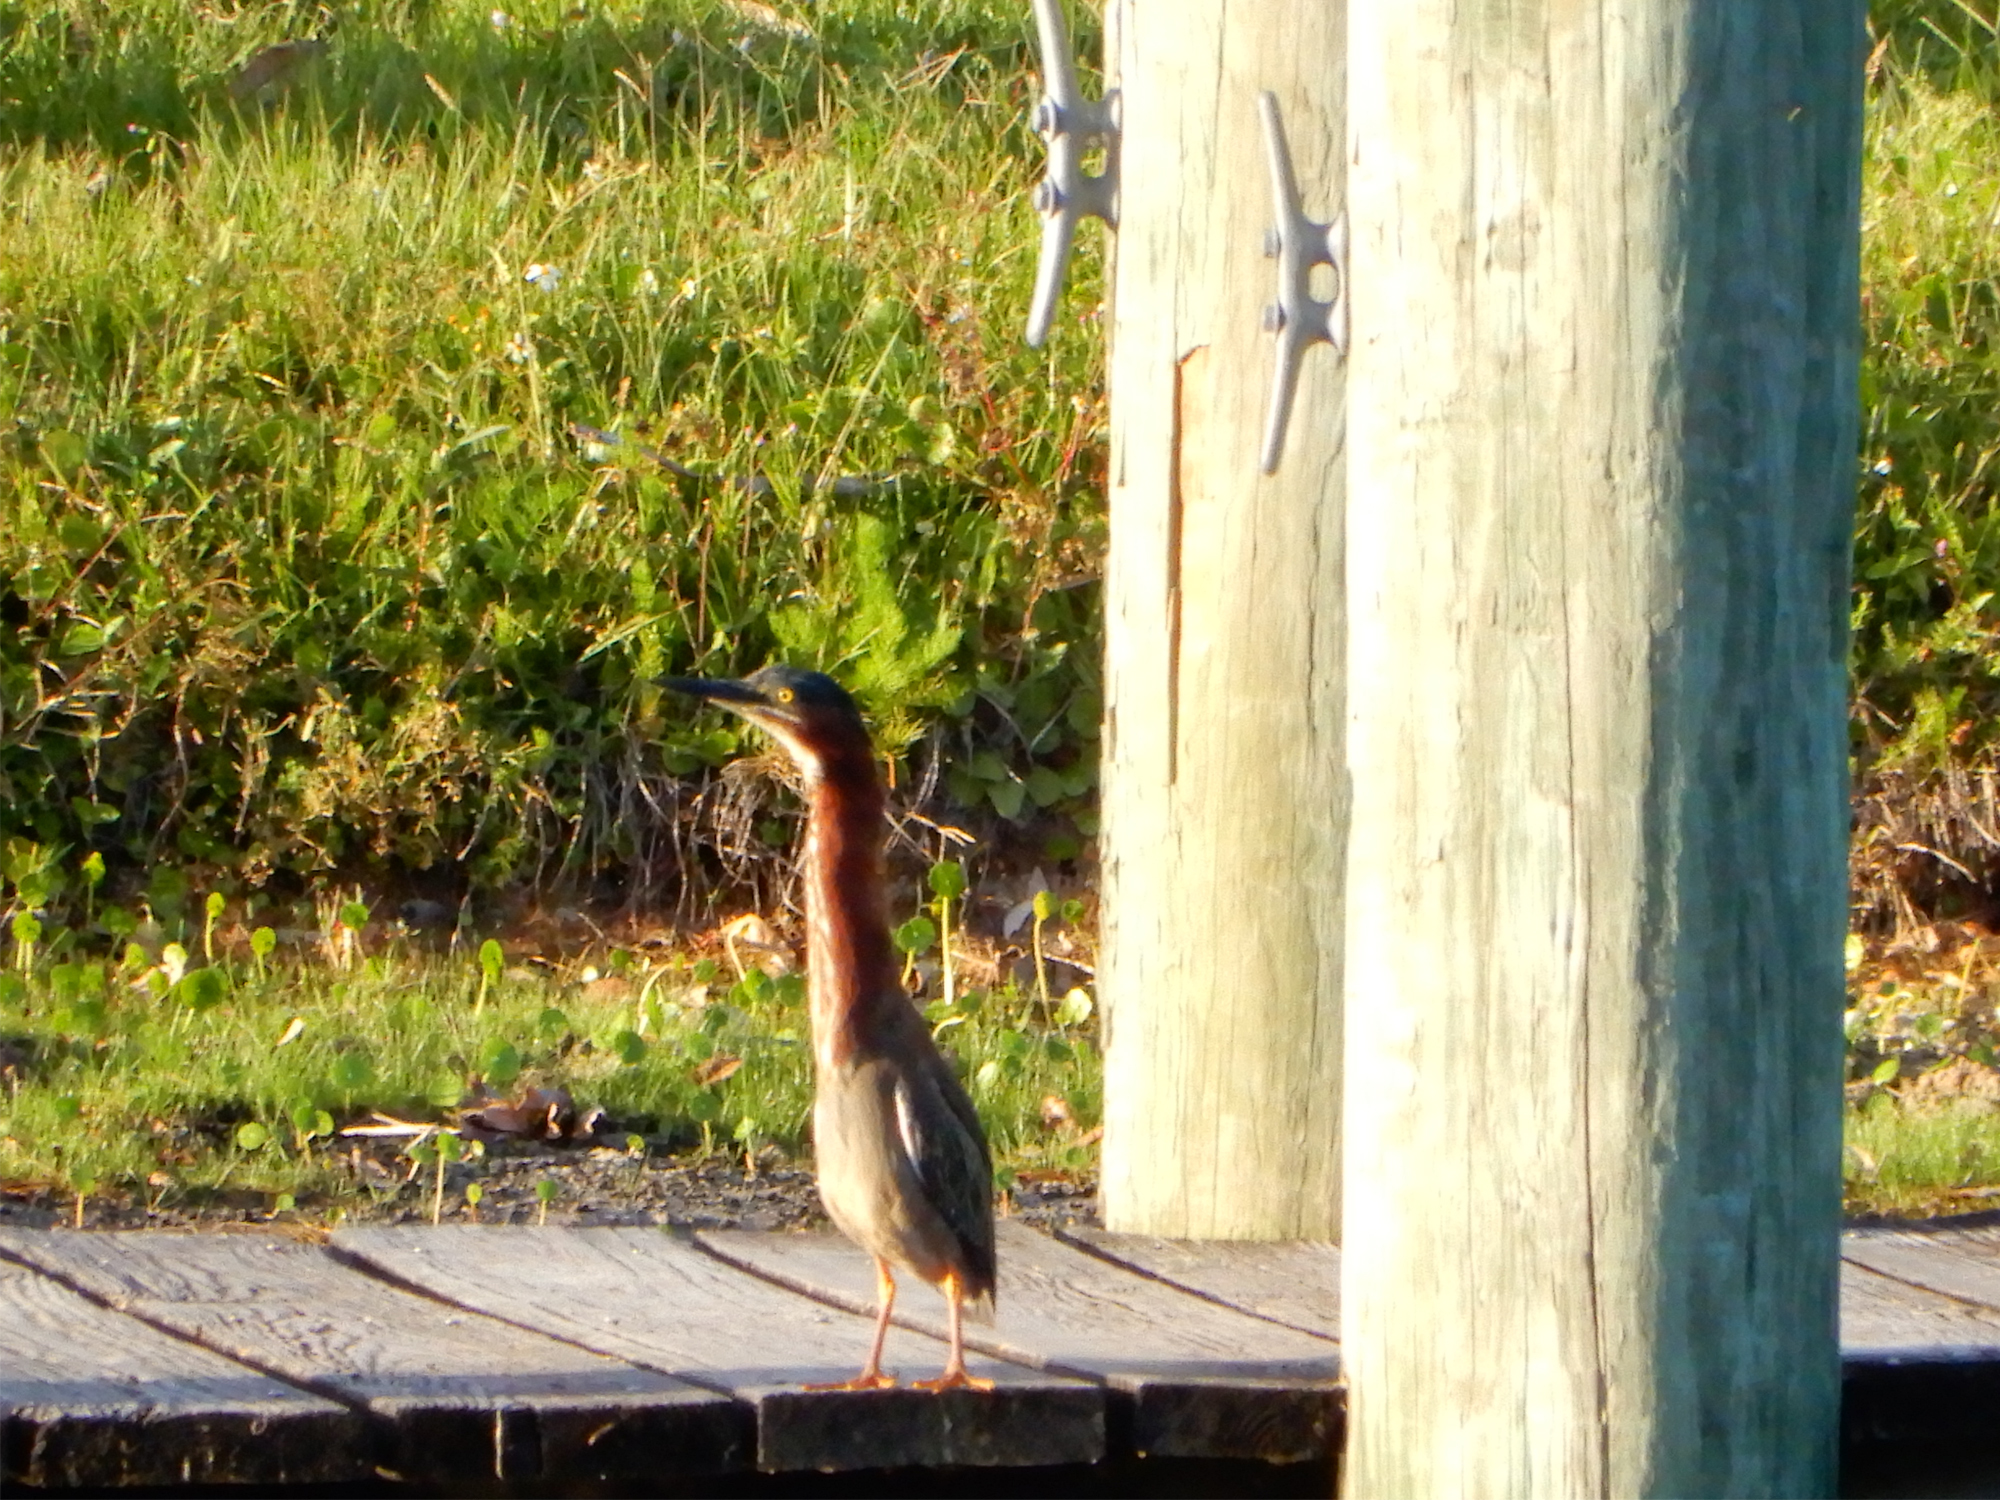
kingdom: Animalia
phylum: Chordata
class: Aves
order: Pelecaniformes
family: Ardeidae
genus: Butorides
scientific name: Butorides virescens
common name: Green heron
